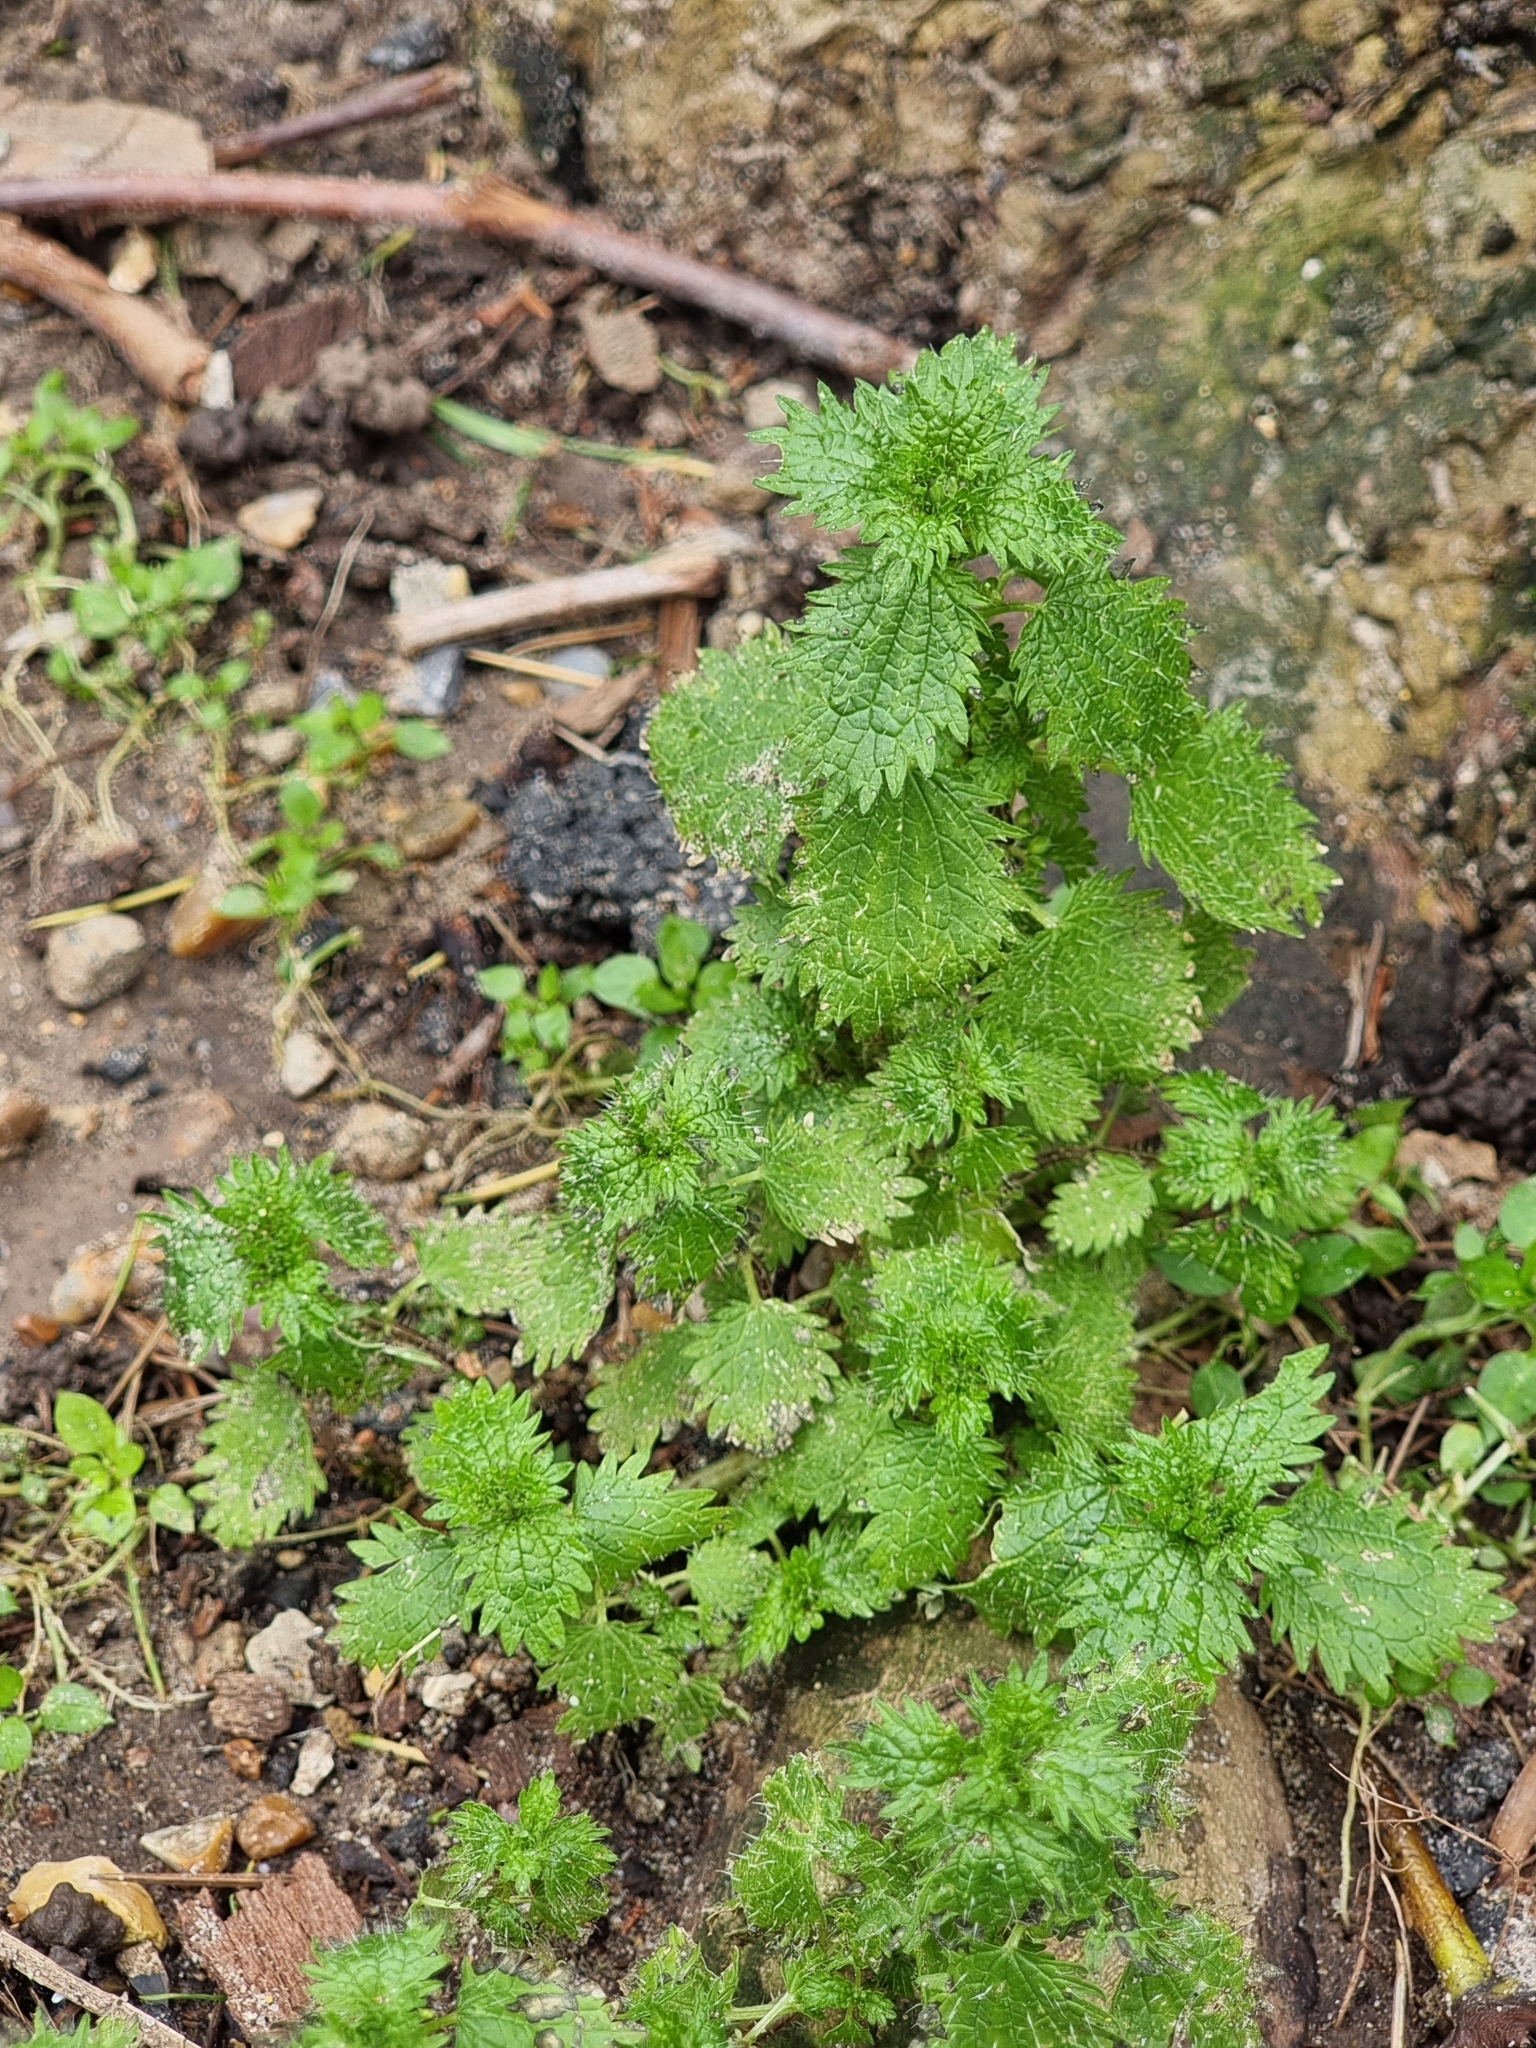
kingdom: Plantae
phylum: Tracheophyta
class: Magnoliopsida
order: Rosales
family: Urticaceae
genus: Urtica
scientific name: Urtica urens
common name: Dwarf nettle
